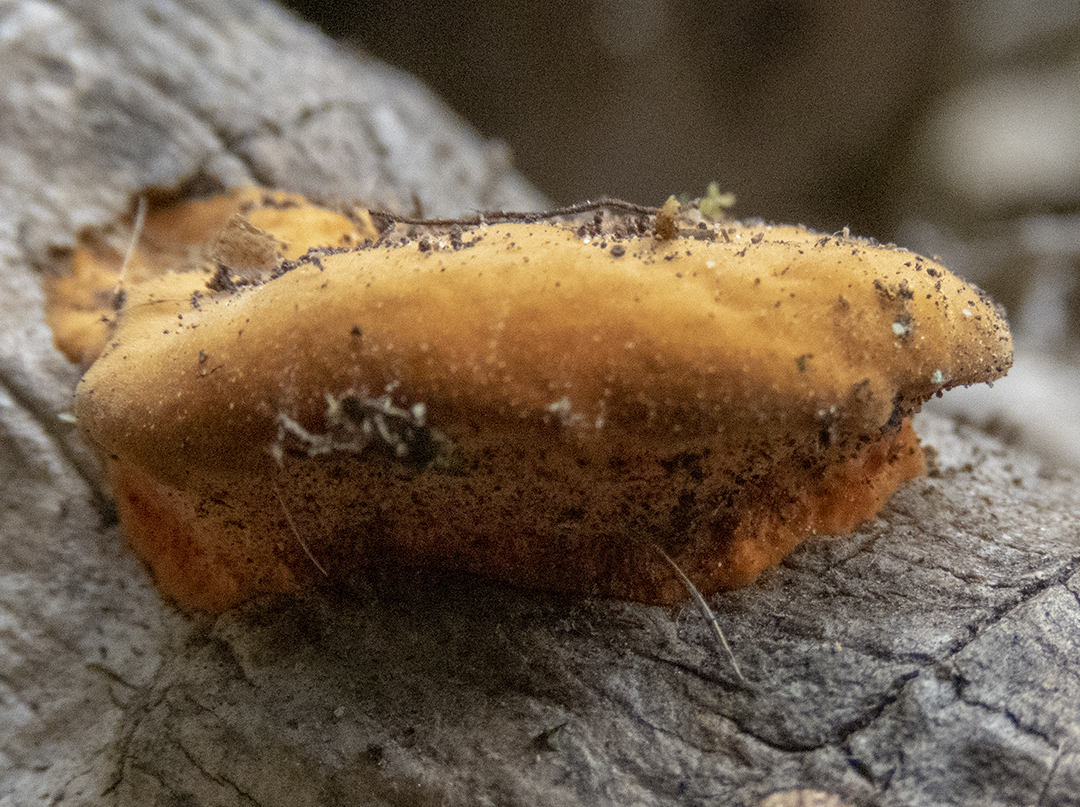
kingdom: Fungi
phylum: Basidiomycota
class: Agaricomycetes
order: Polyporales
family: Polyporaceae
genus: Trametes
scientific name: Trametes coccinea
